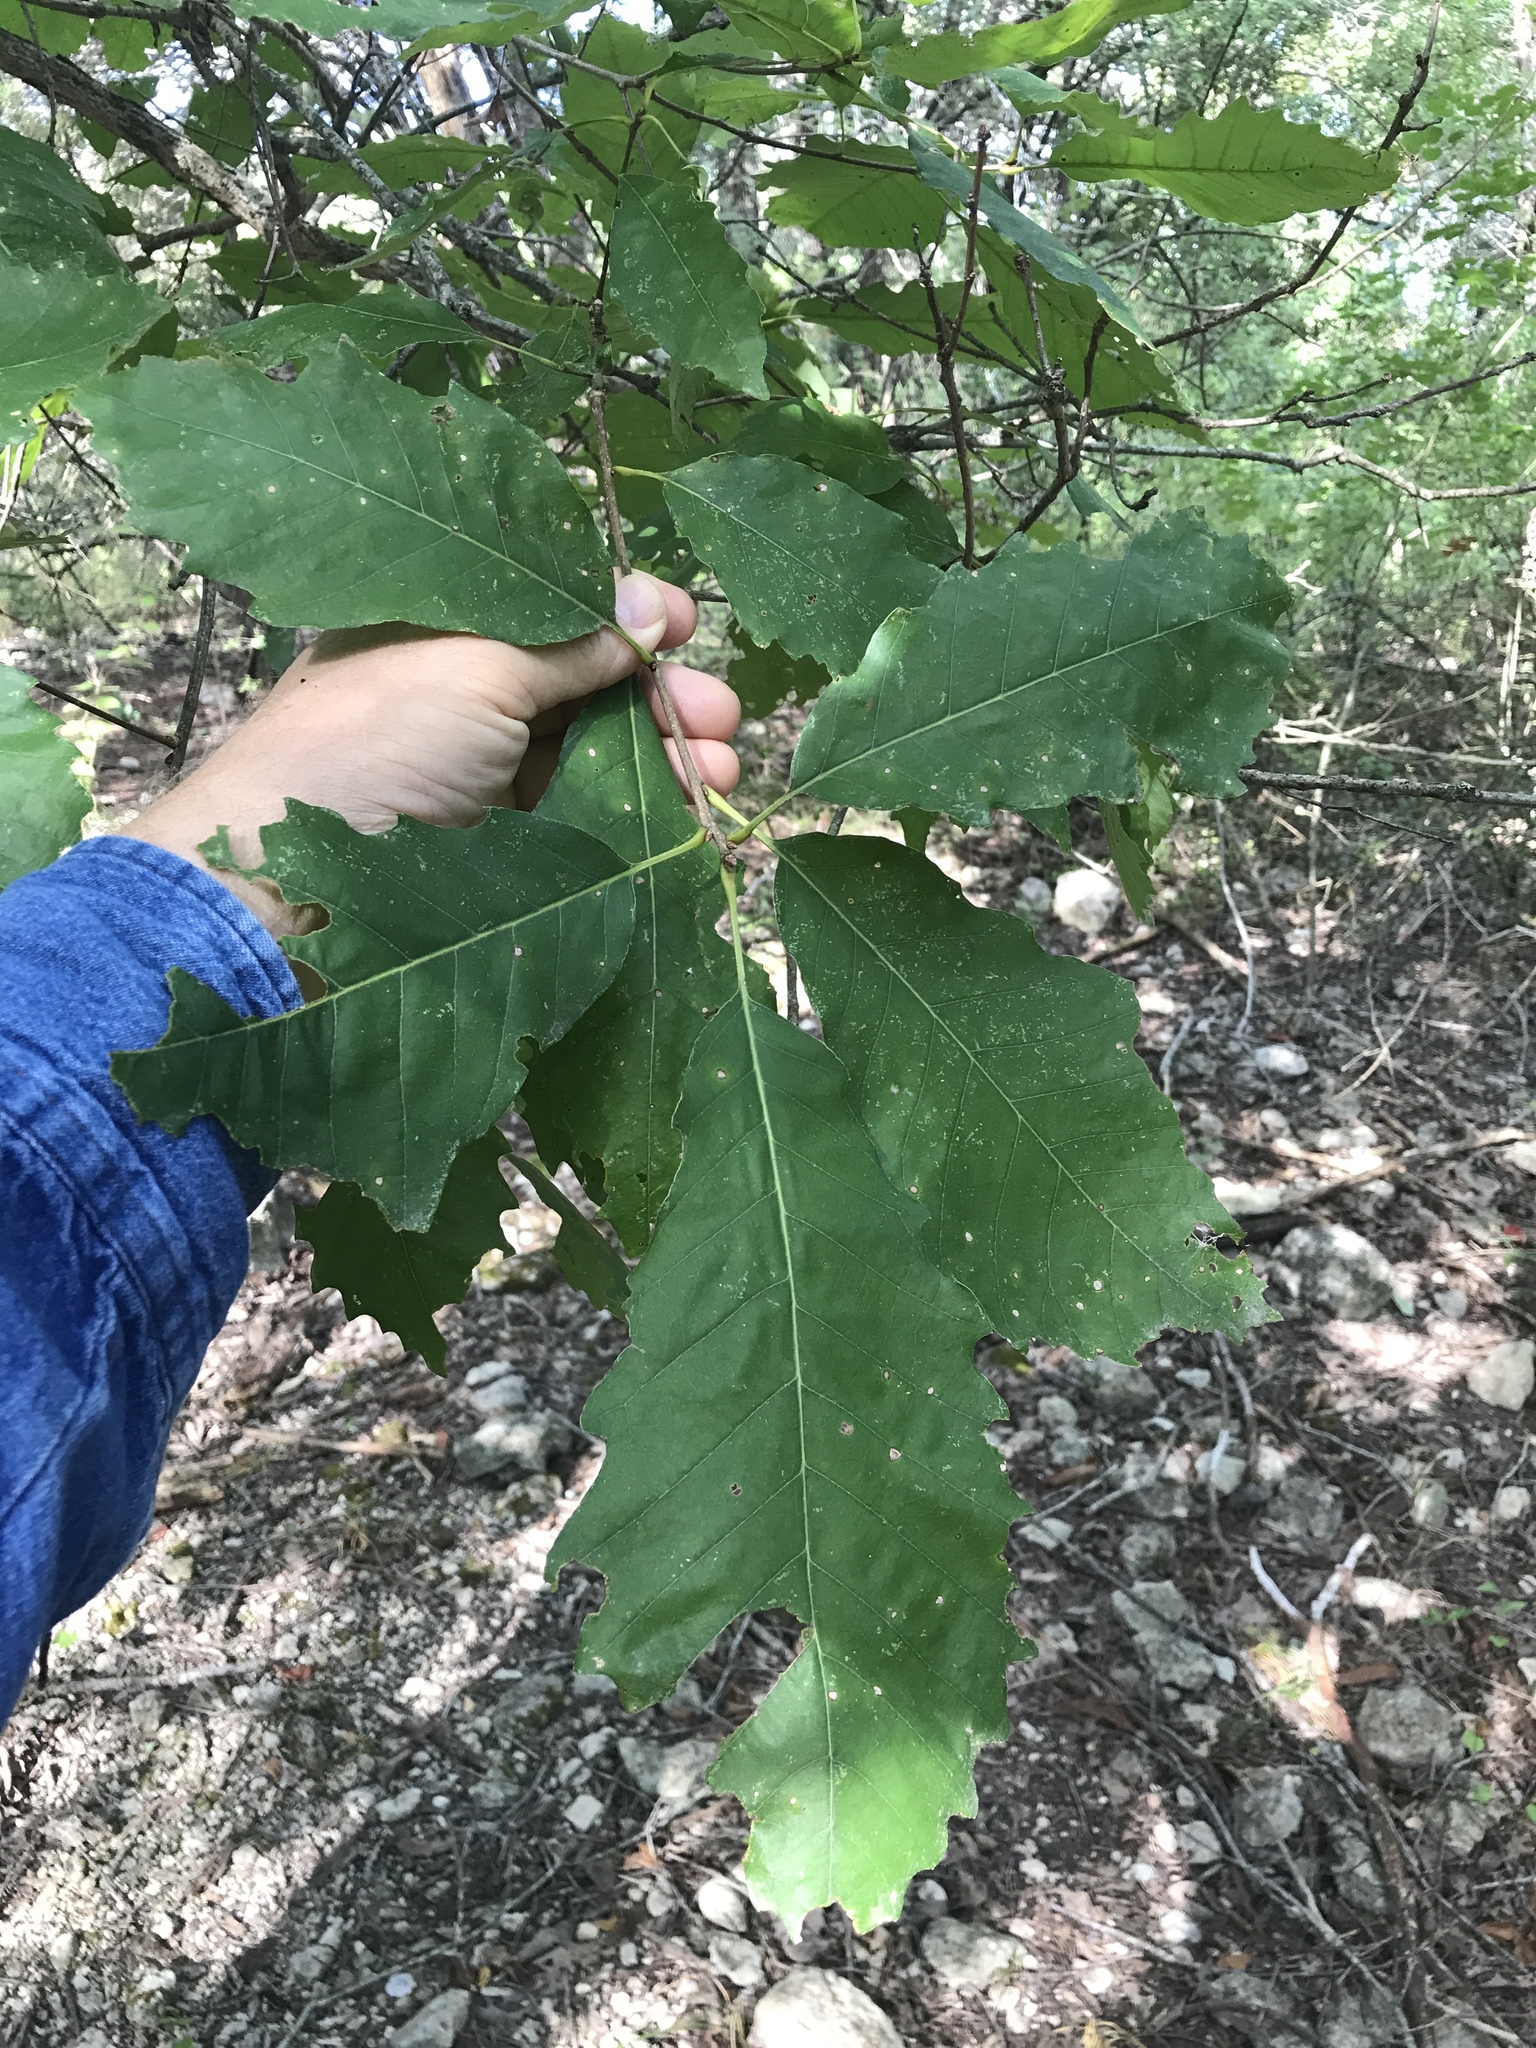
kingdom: Plantae
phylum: Tracheophyta
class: Magnoliopsida
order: Fagales
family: Fagaceae
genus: Quercus
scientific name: Quercus muehlenbergii
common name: Chinkapin oak
